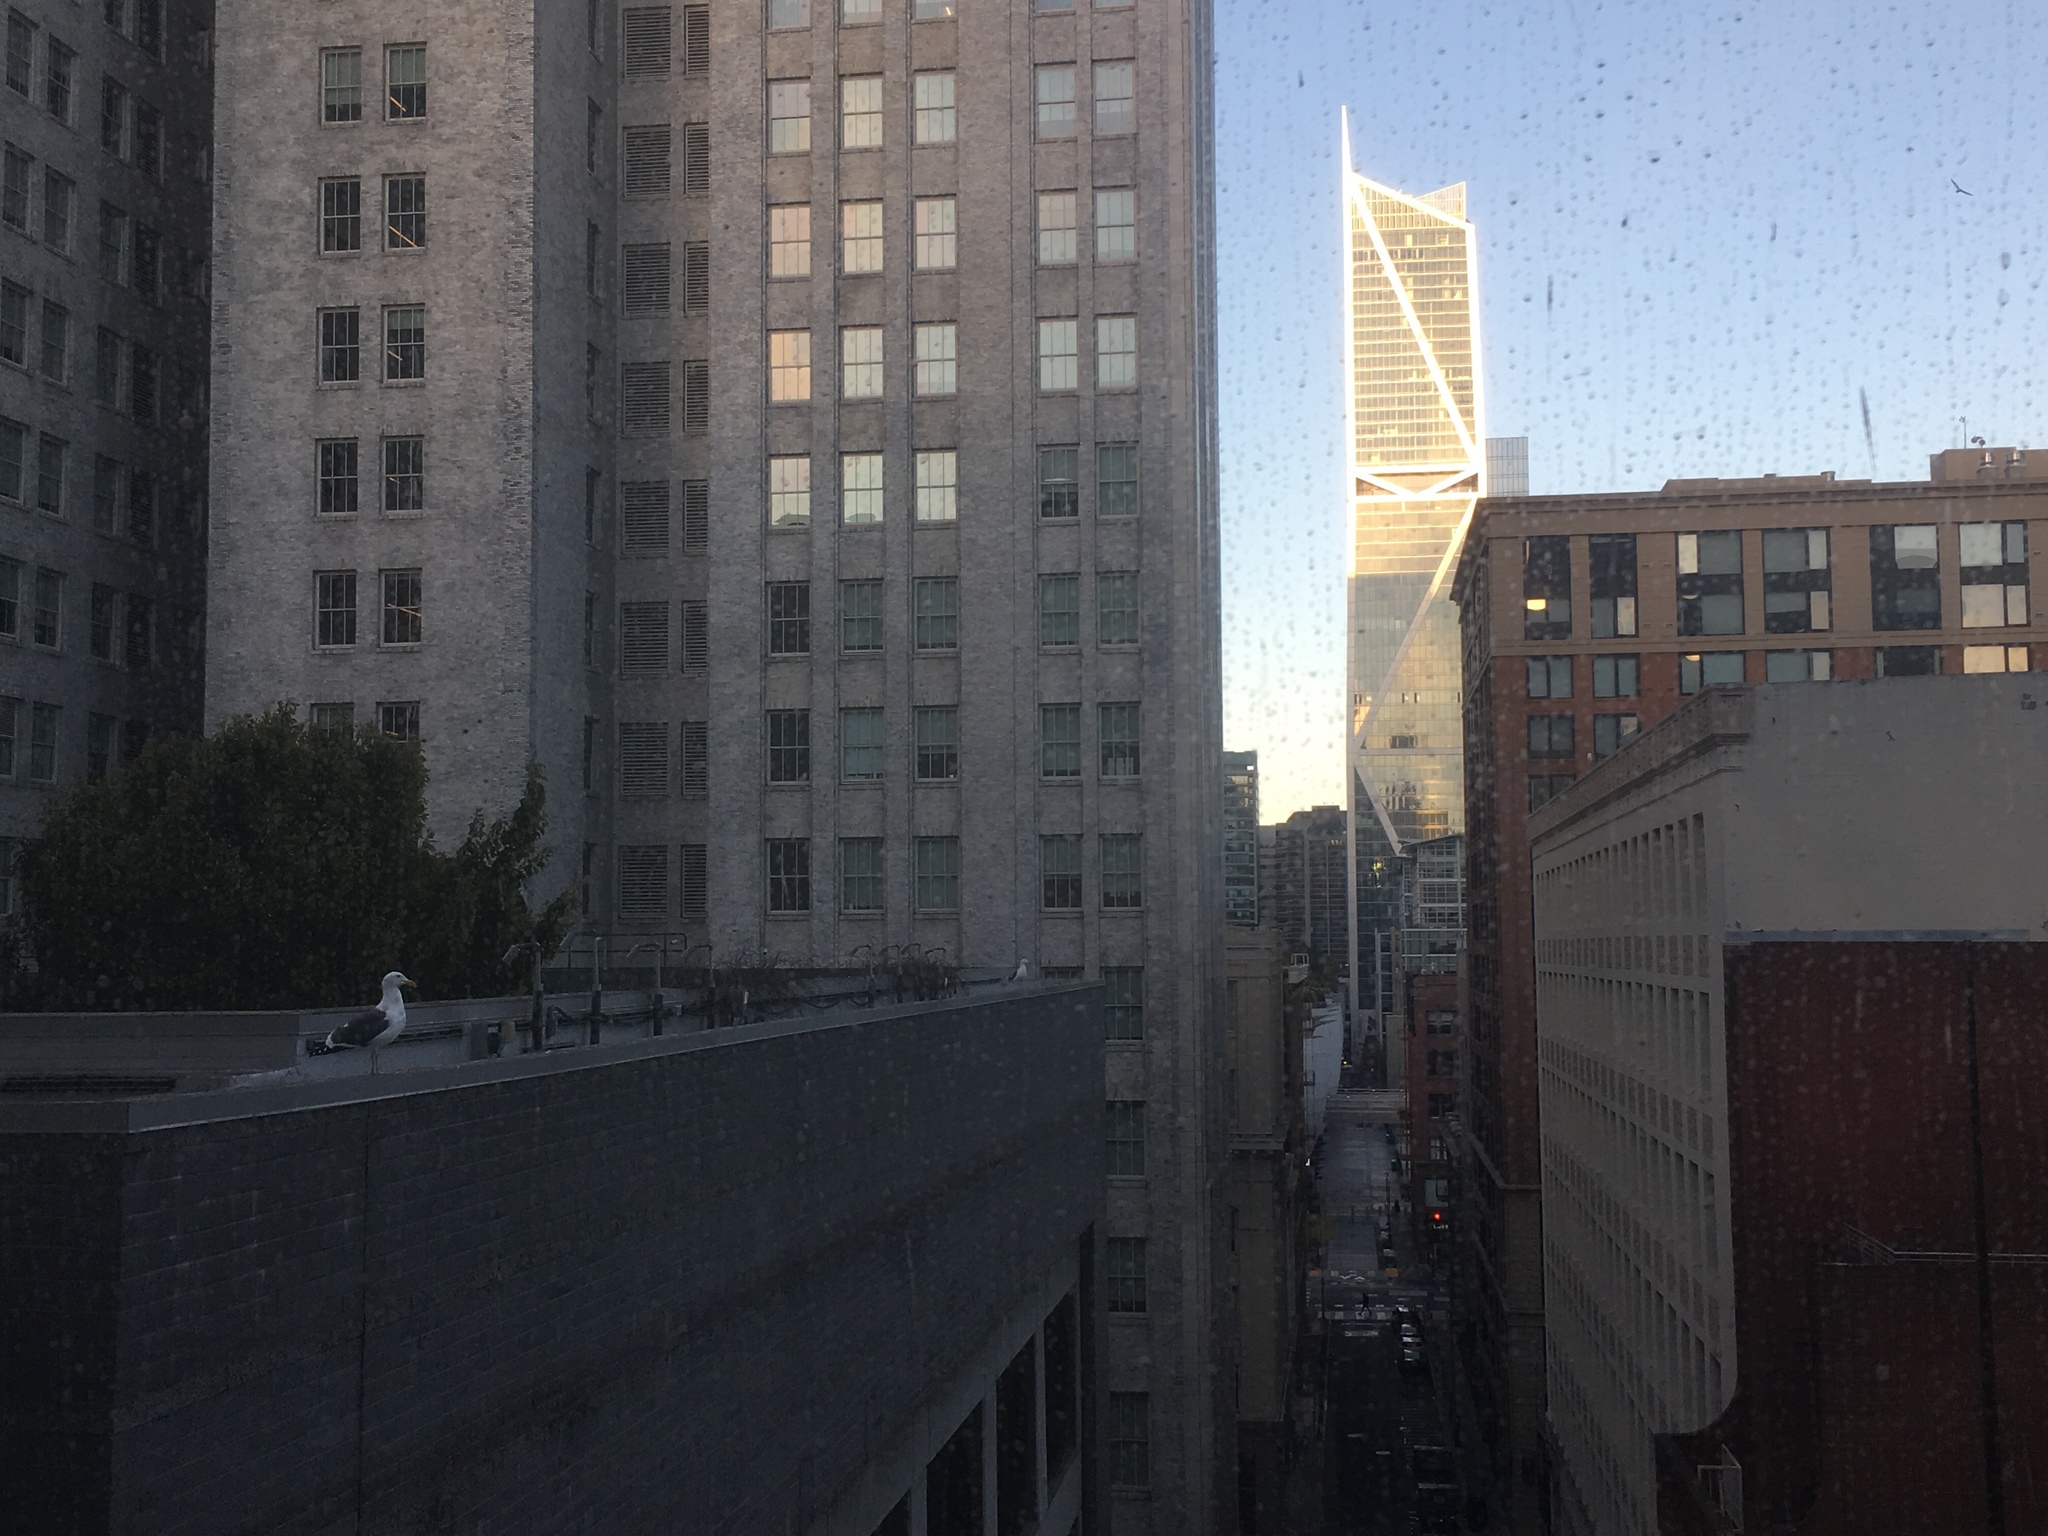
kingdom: Animalia
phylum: Chordata
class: Aves
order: Charadriiformes
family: Laridae
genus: Larus
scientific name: Larus occidentalis
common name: Western gull
